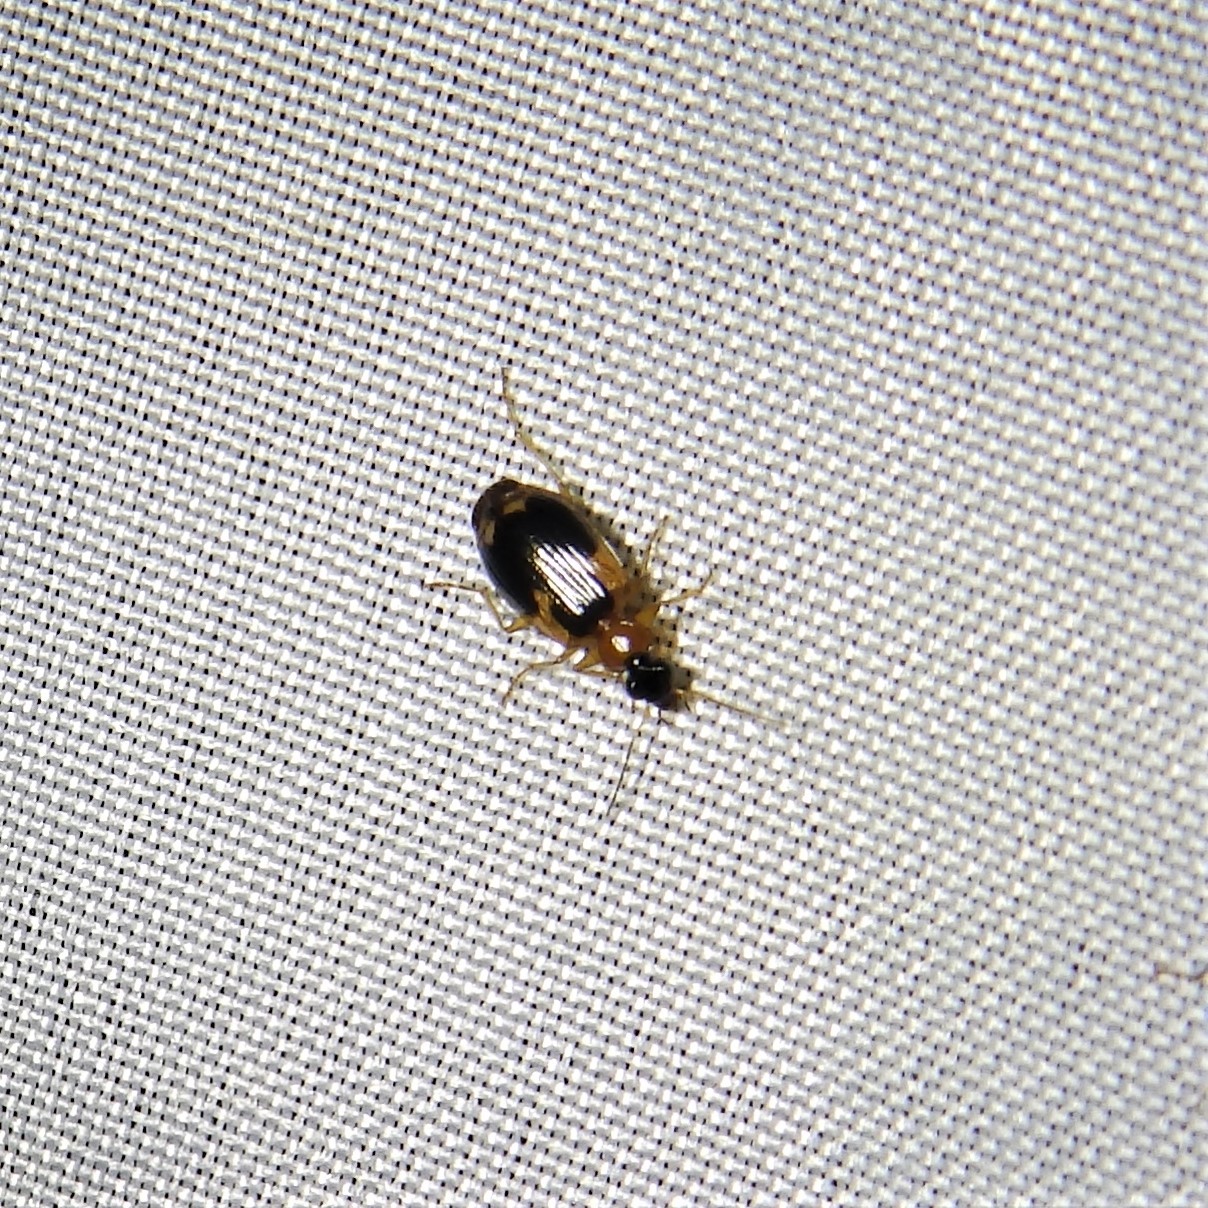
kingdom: Animalia
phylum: Arthropoda
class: Insecta
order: Coleoptera
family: Carabidae
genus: Lebia
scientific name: Lebia analis
